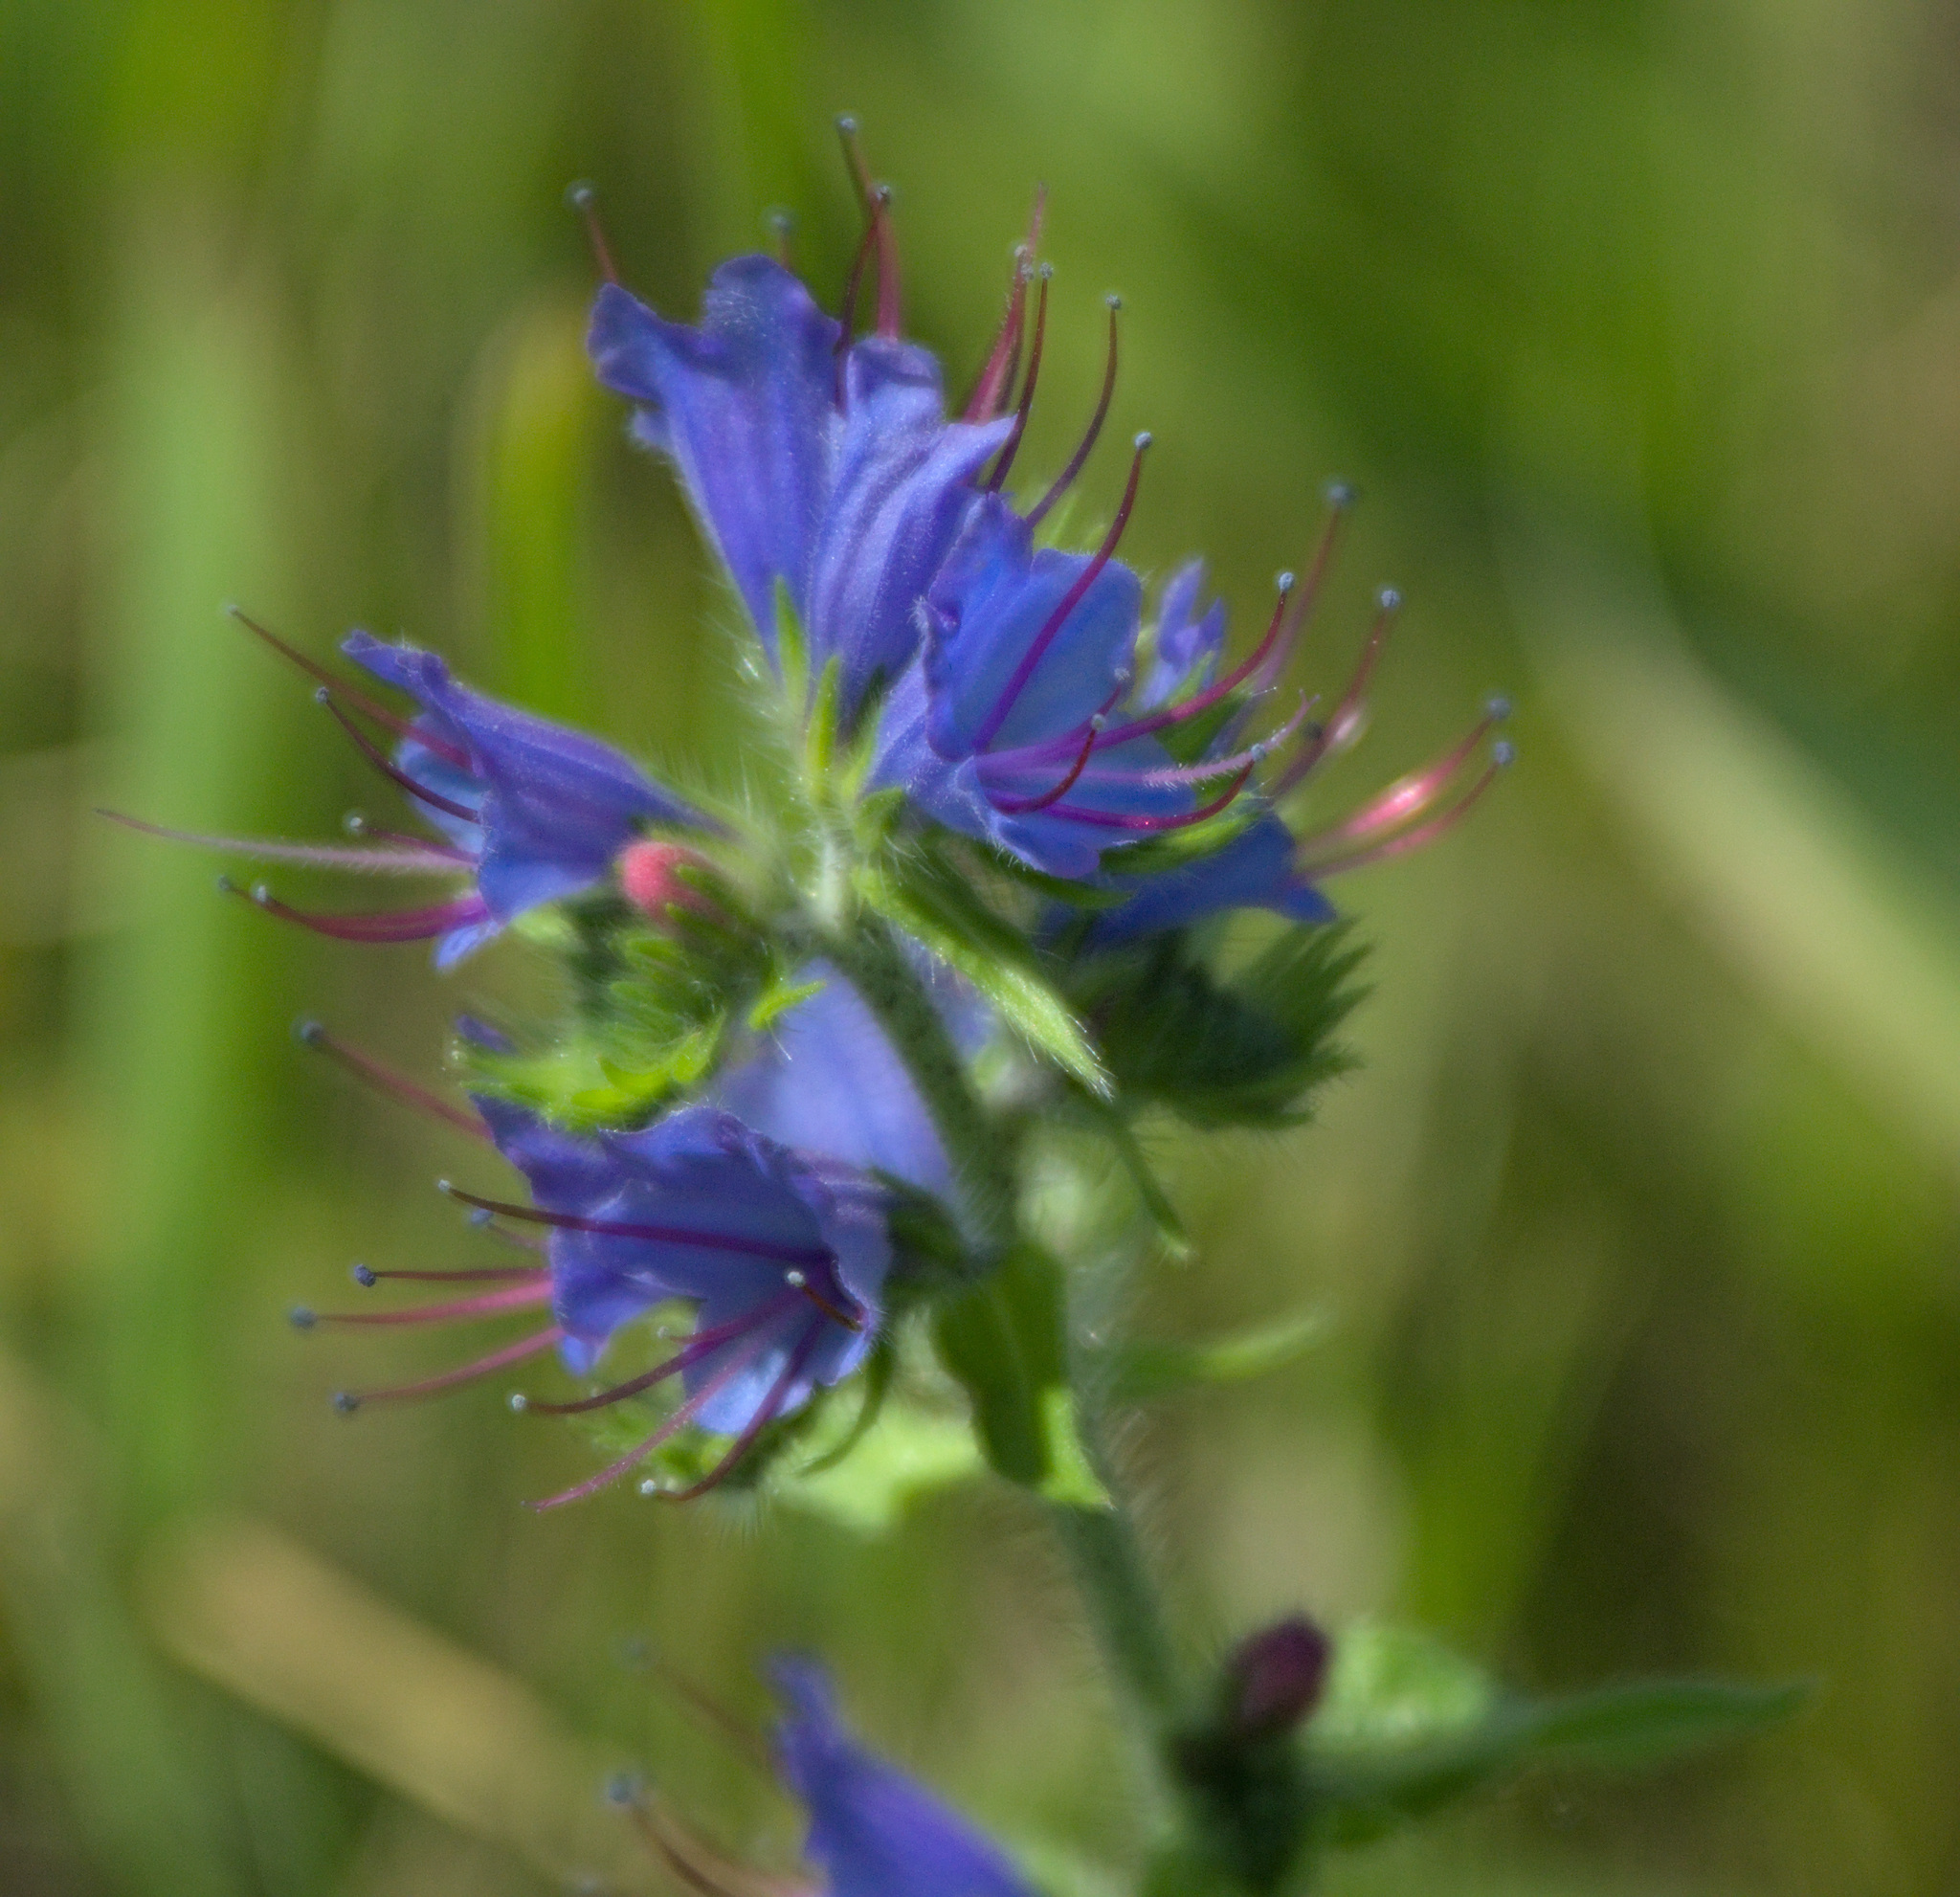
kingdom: Plantae
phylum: Tracheophyta
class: Magnoliopsida
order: Boraginales
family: Boraginaceae
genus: Echium
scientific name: Echium vulgare
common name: Common viper's bugloss
